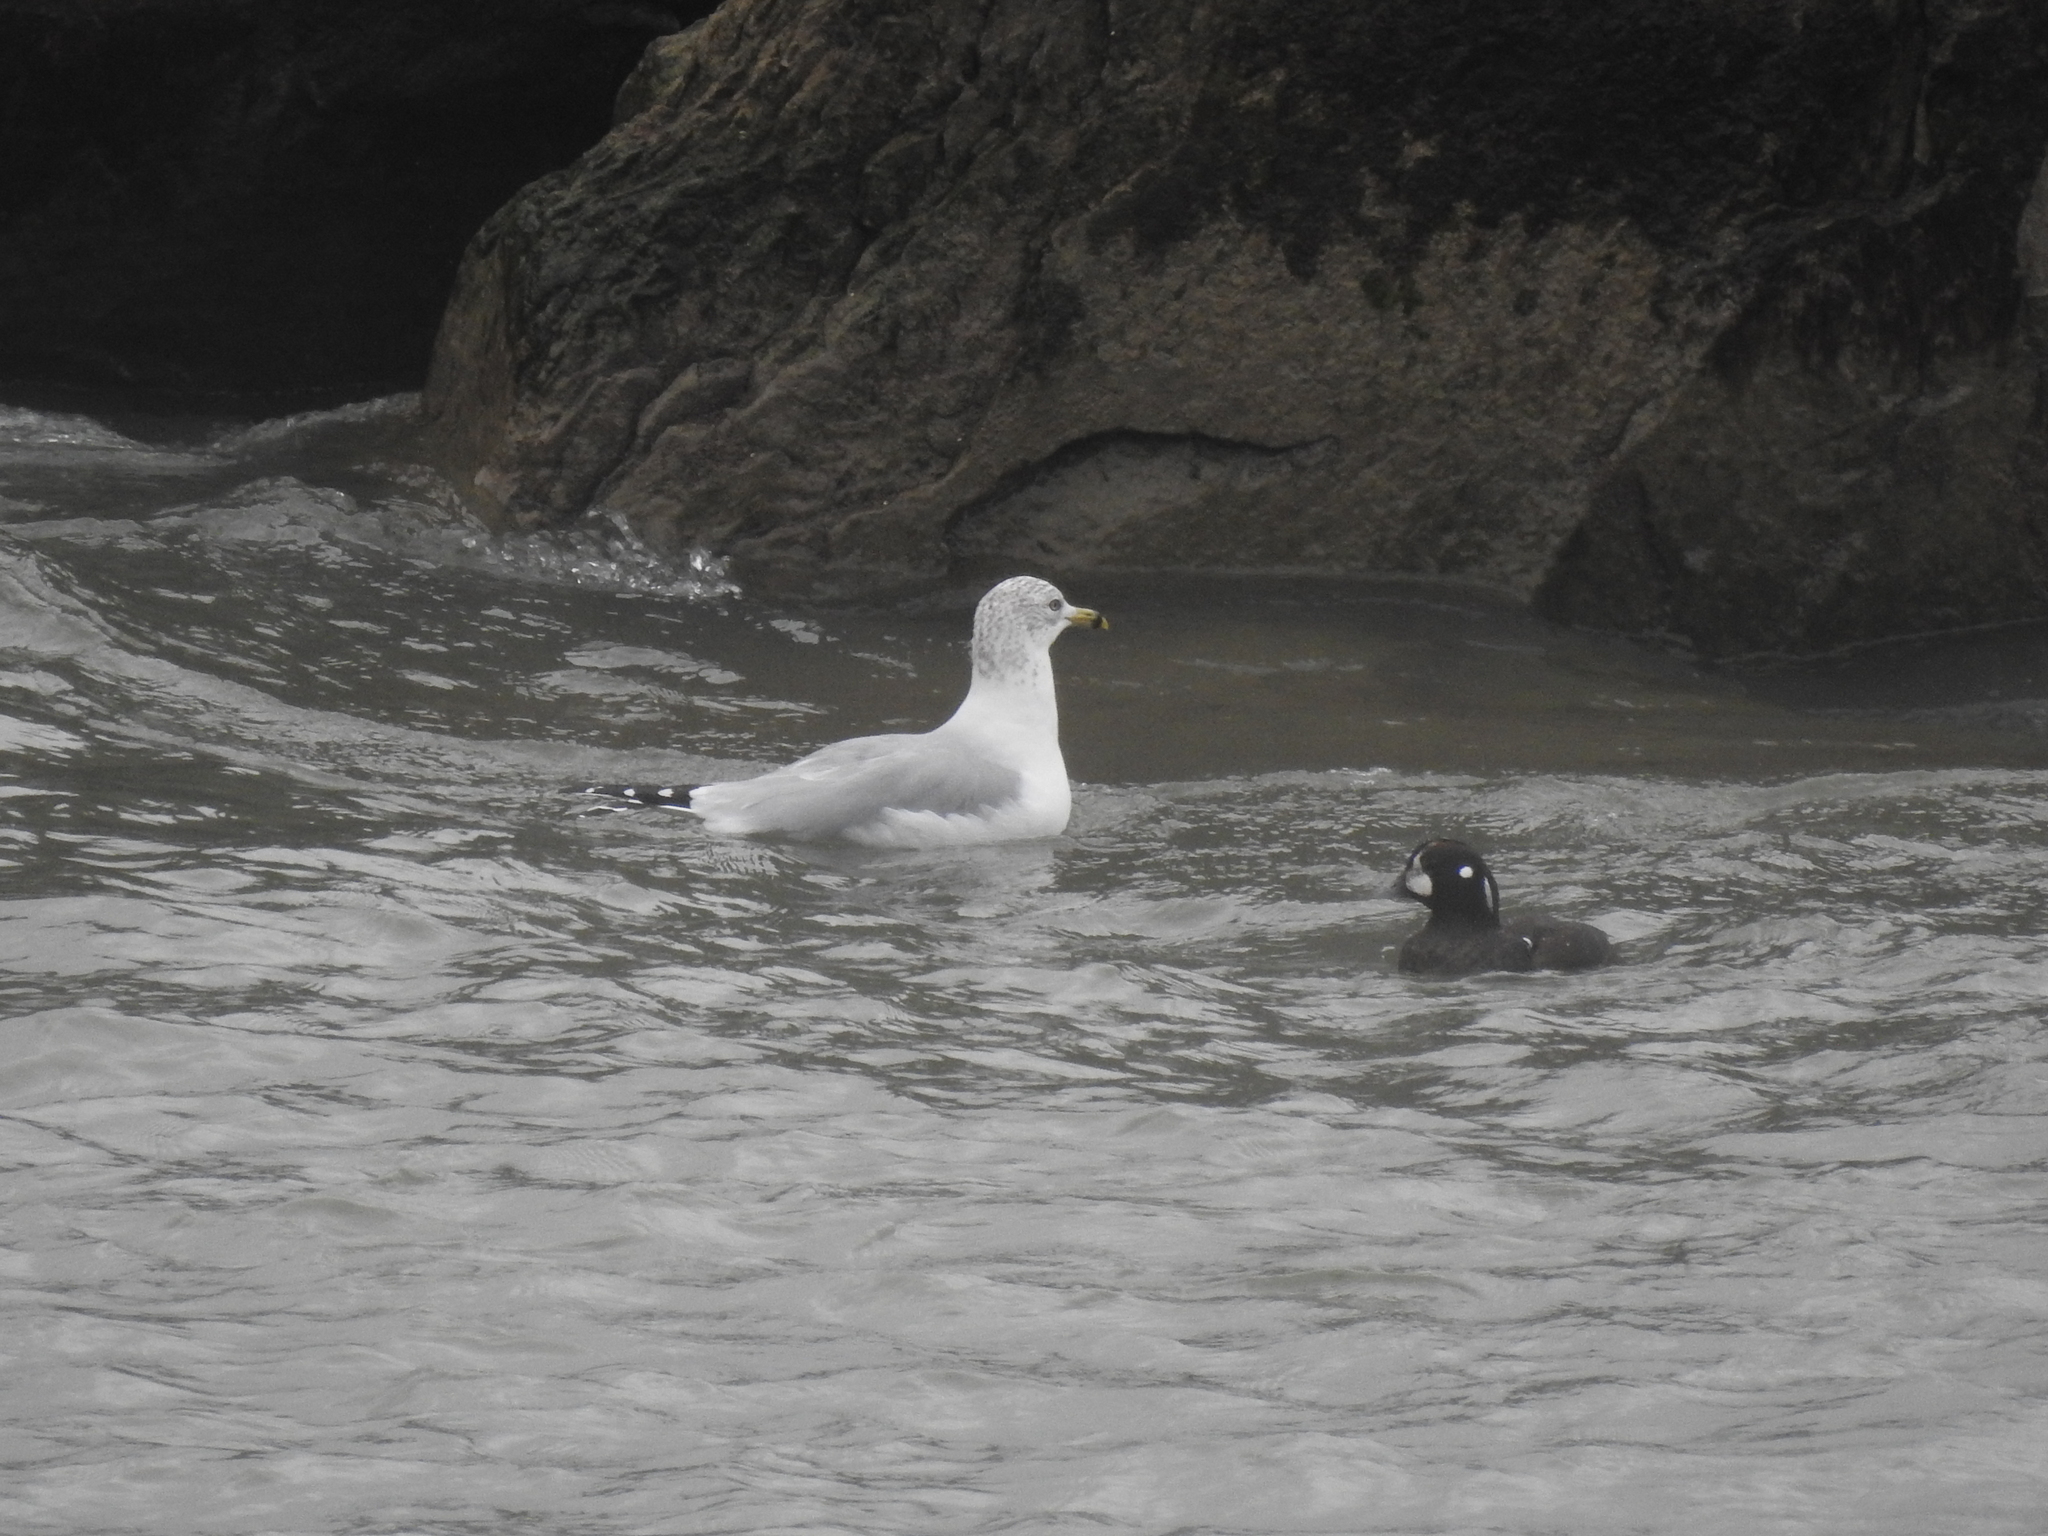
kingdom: Animalia
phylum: Chordata
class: Aves
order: Anseriformes
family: Anatidae
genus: Histrionicus
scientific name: Histrionicus histrionicus
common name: Harlequin duck
